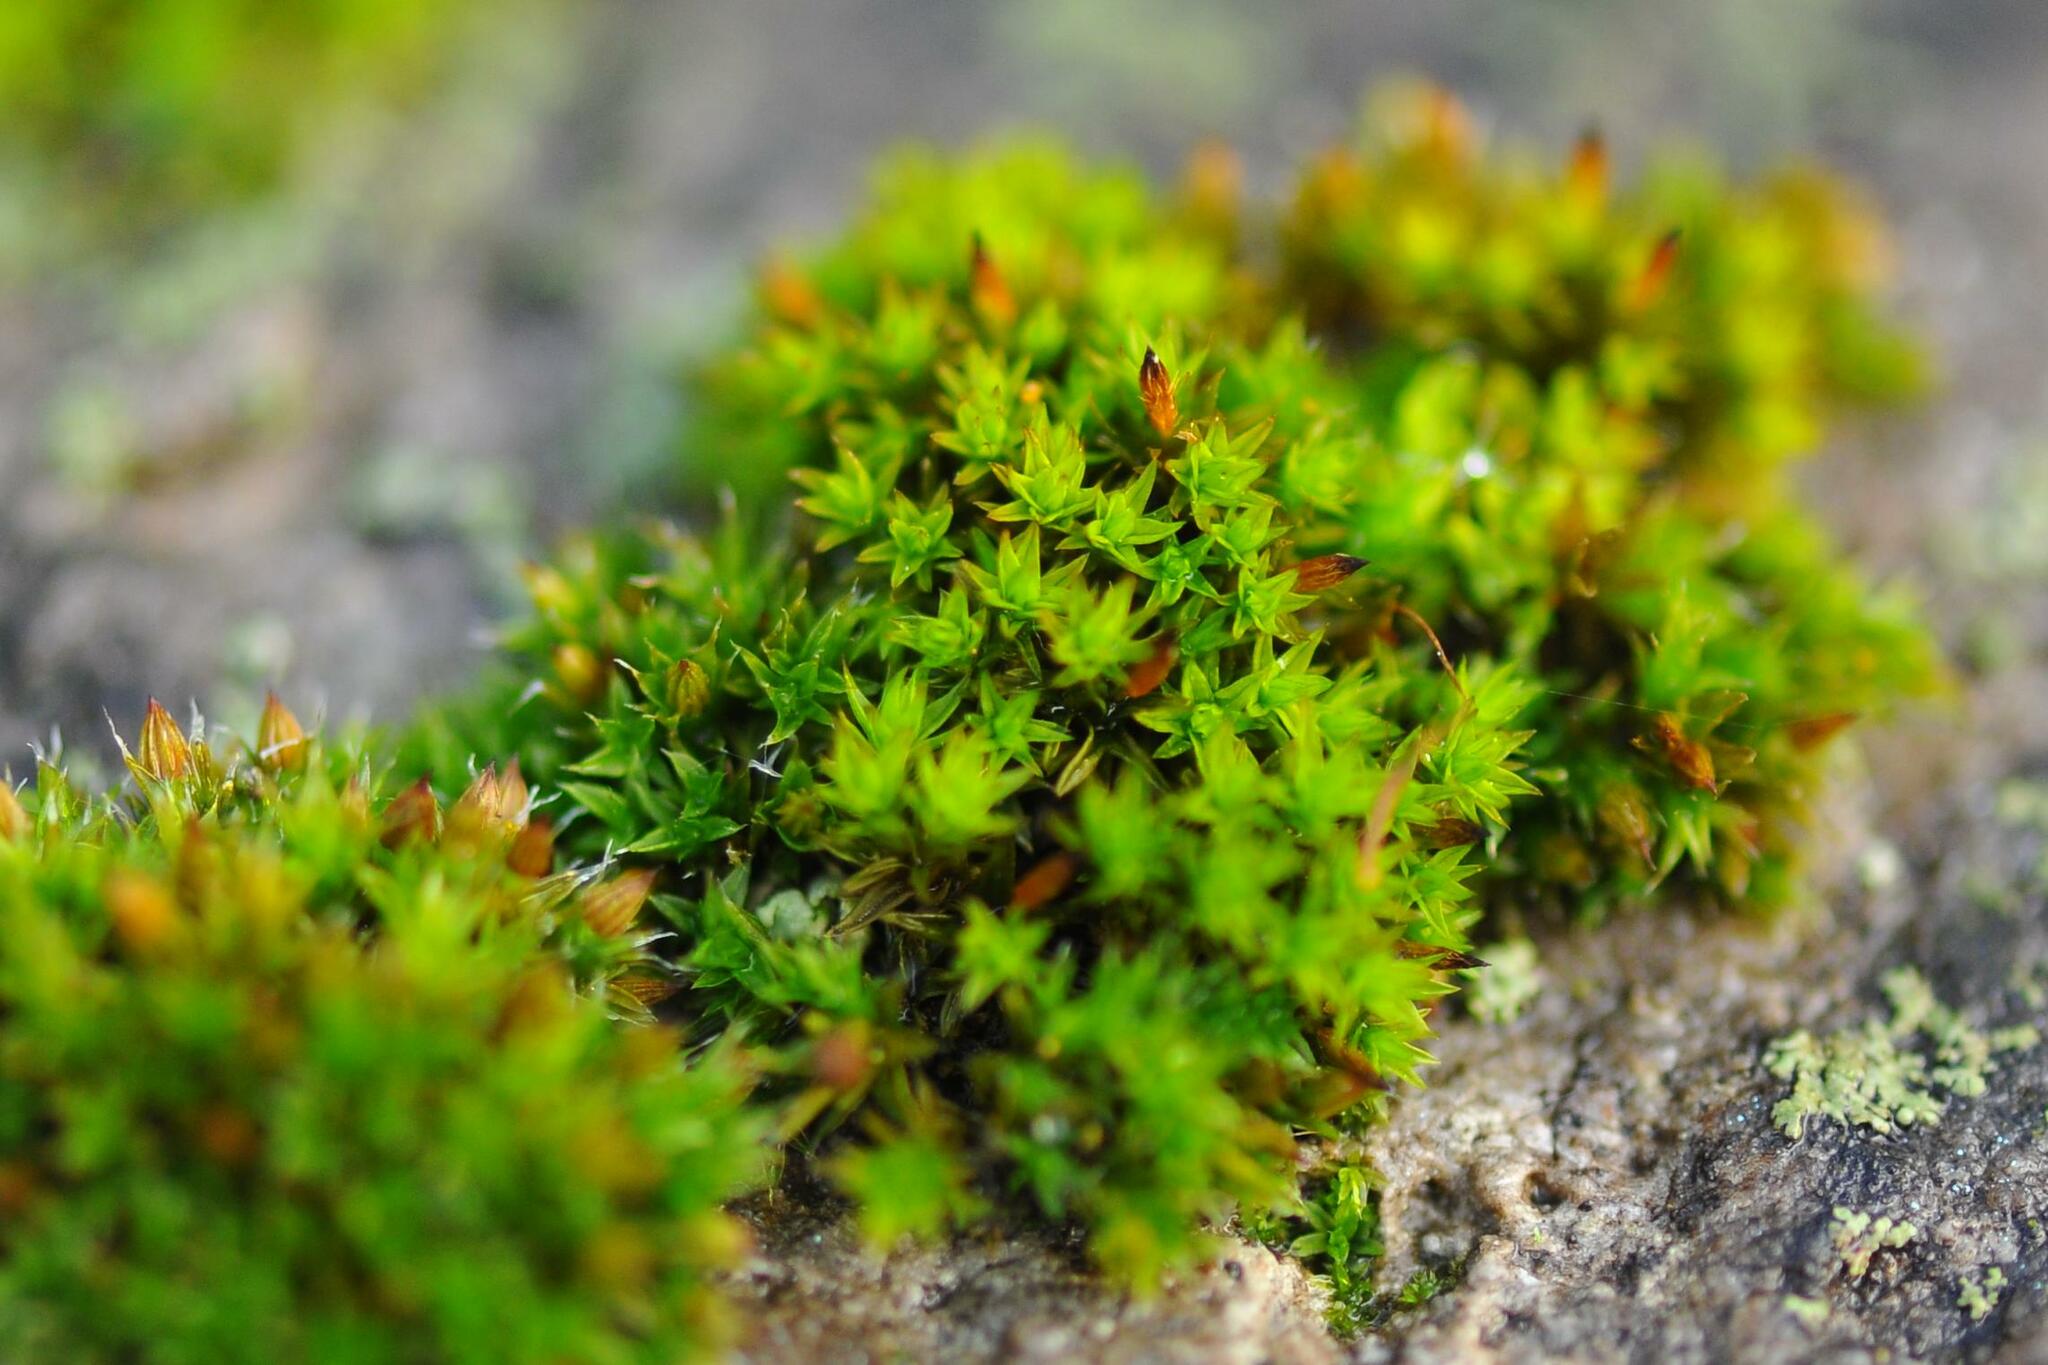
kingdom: Plantae
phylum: Bryophyta
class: Bryopsida
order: Orthotrichales
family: Orthotrichaceae
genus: Orthotrichum
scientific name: Orthotrichum anomalum
